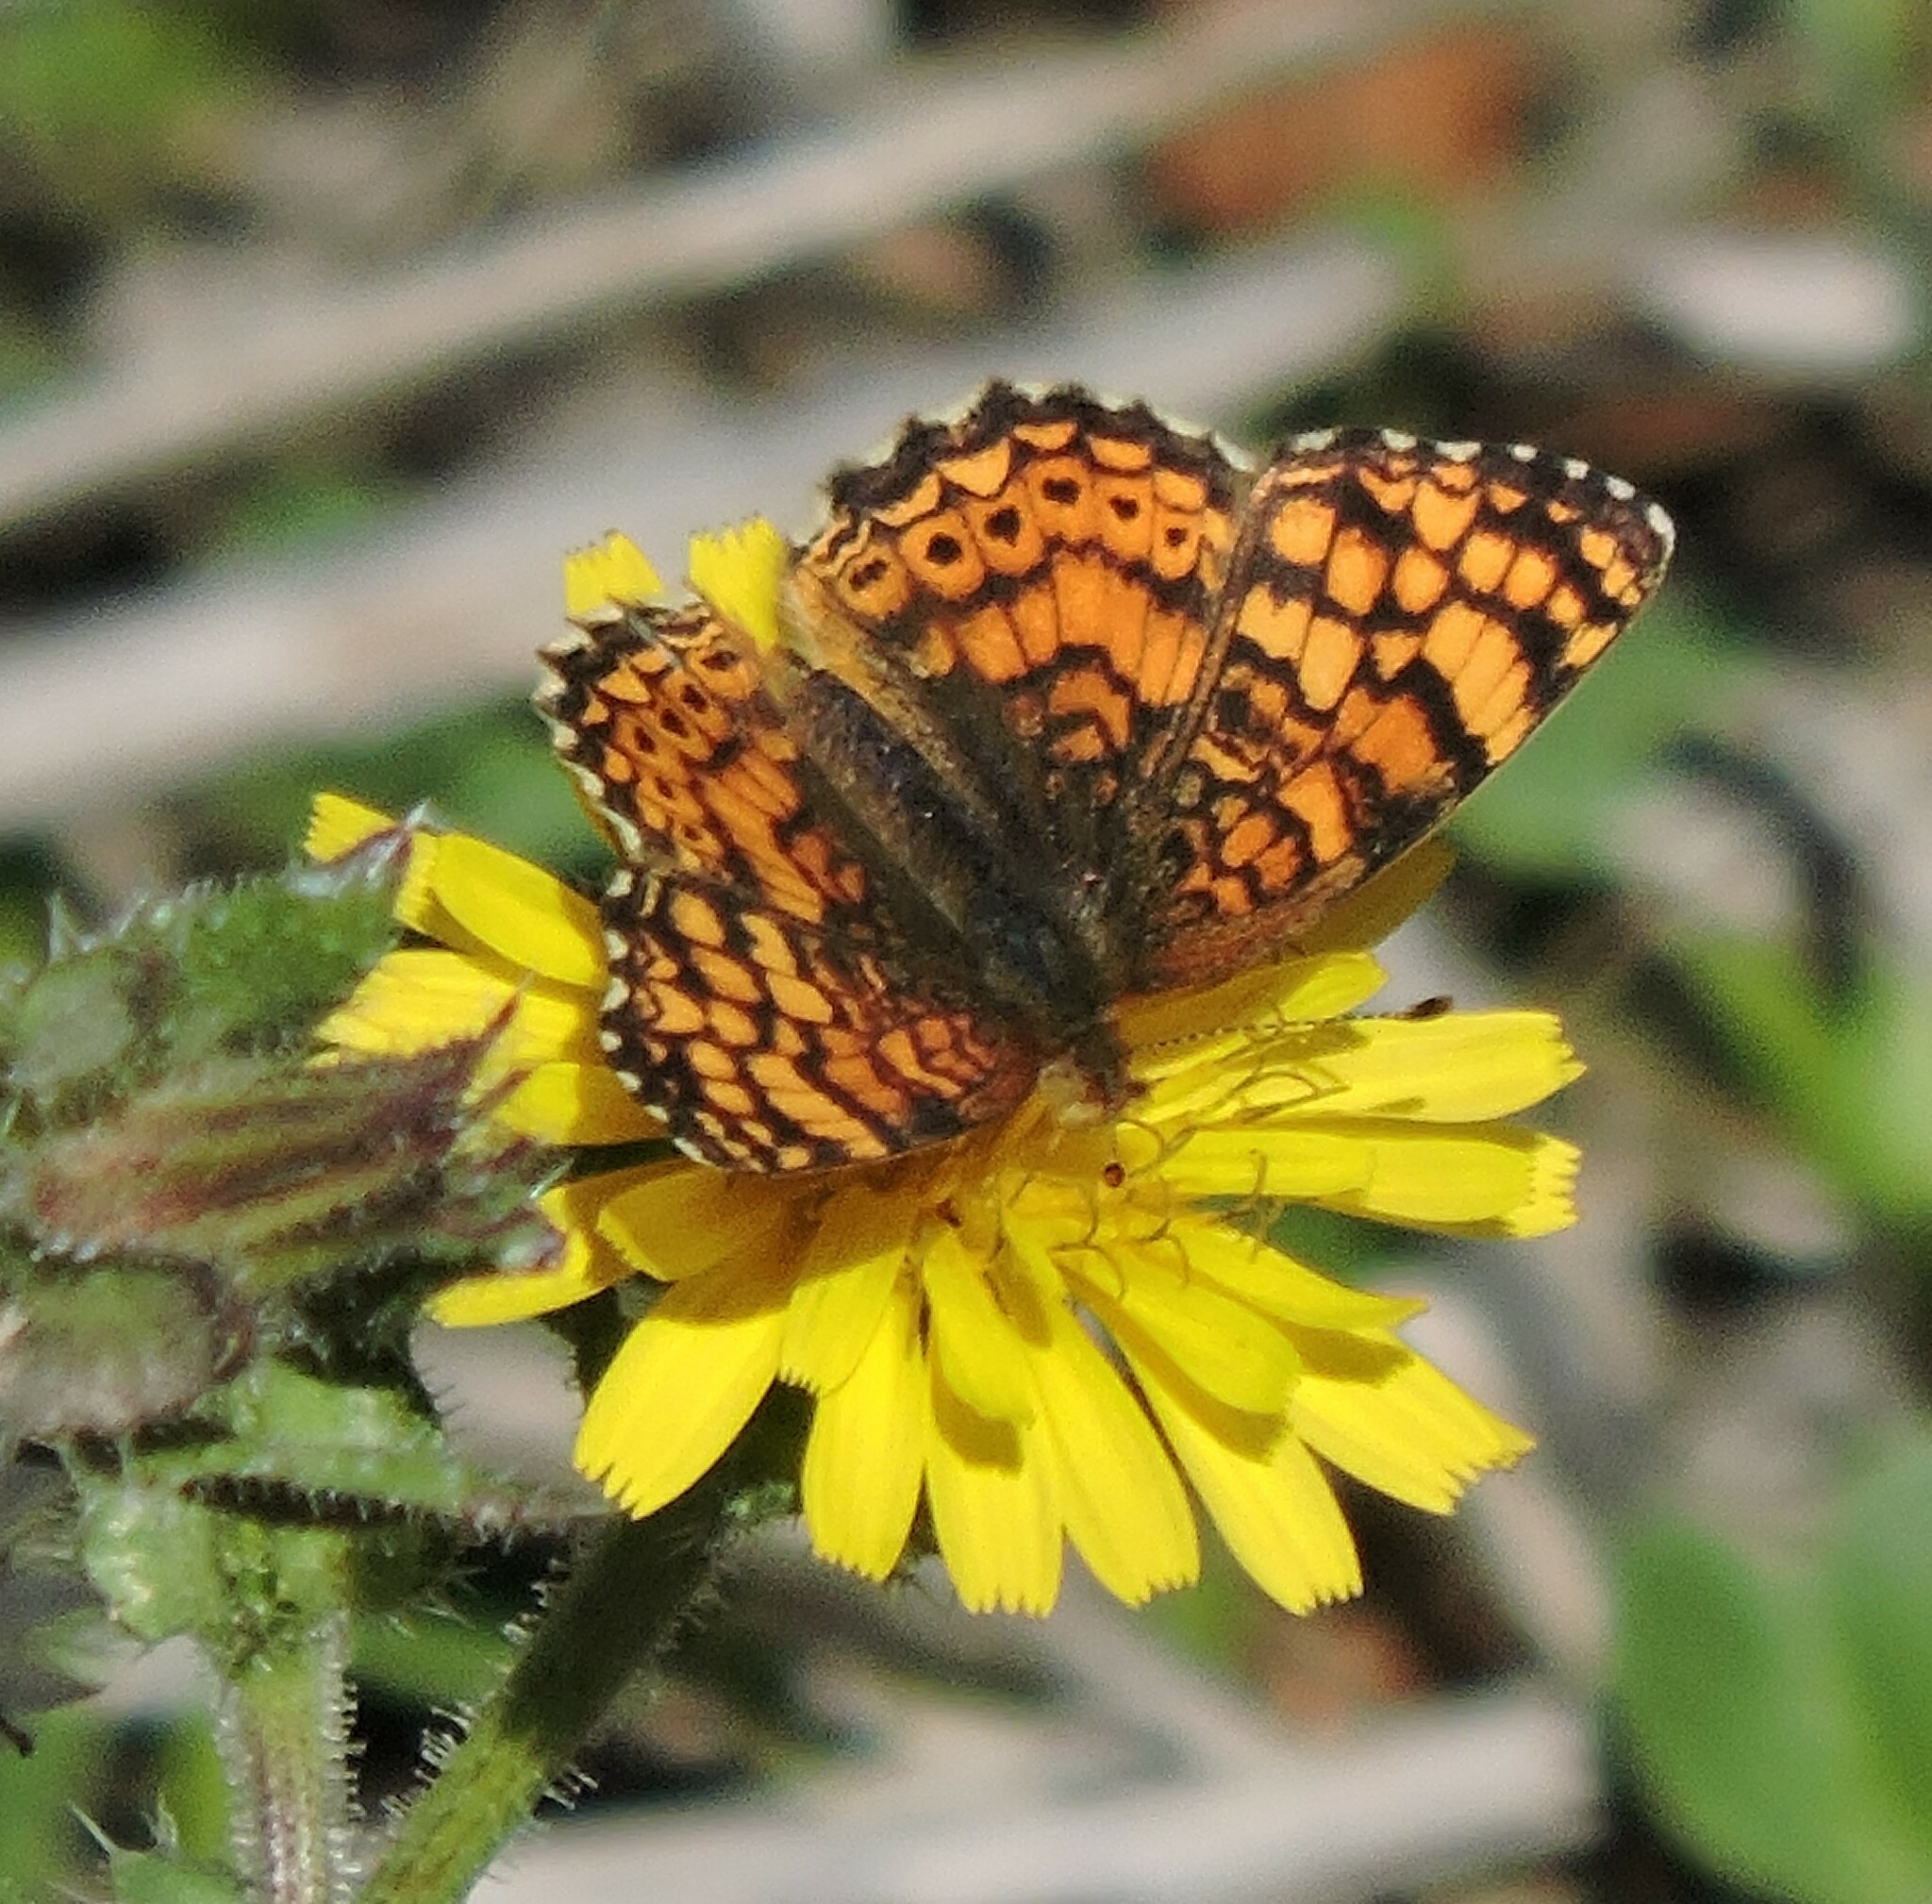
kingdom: Animalia
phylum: Arthropoda
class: Insecta
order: Lepidoptera
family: Nymphalidae
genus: Eresia
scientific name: Eresia aveyrona
